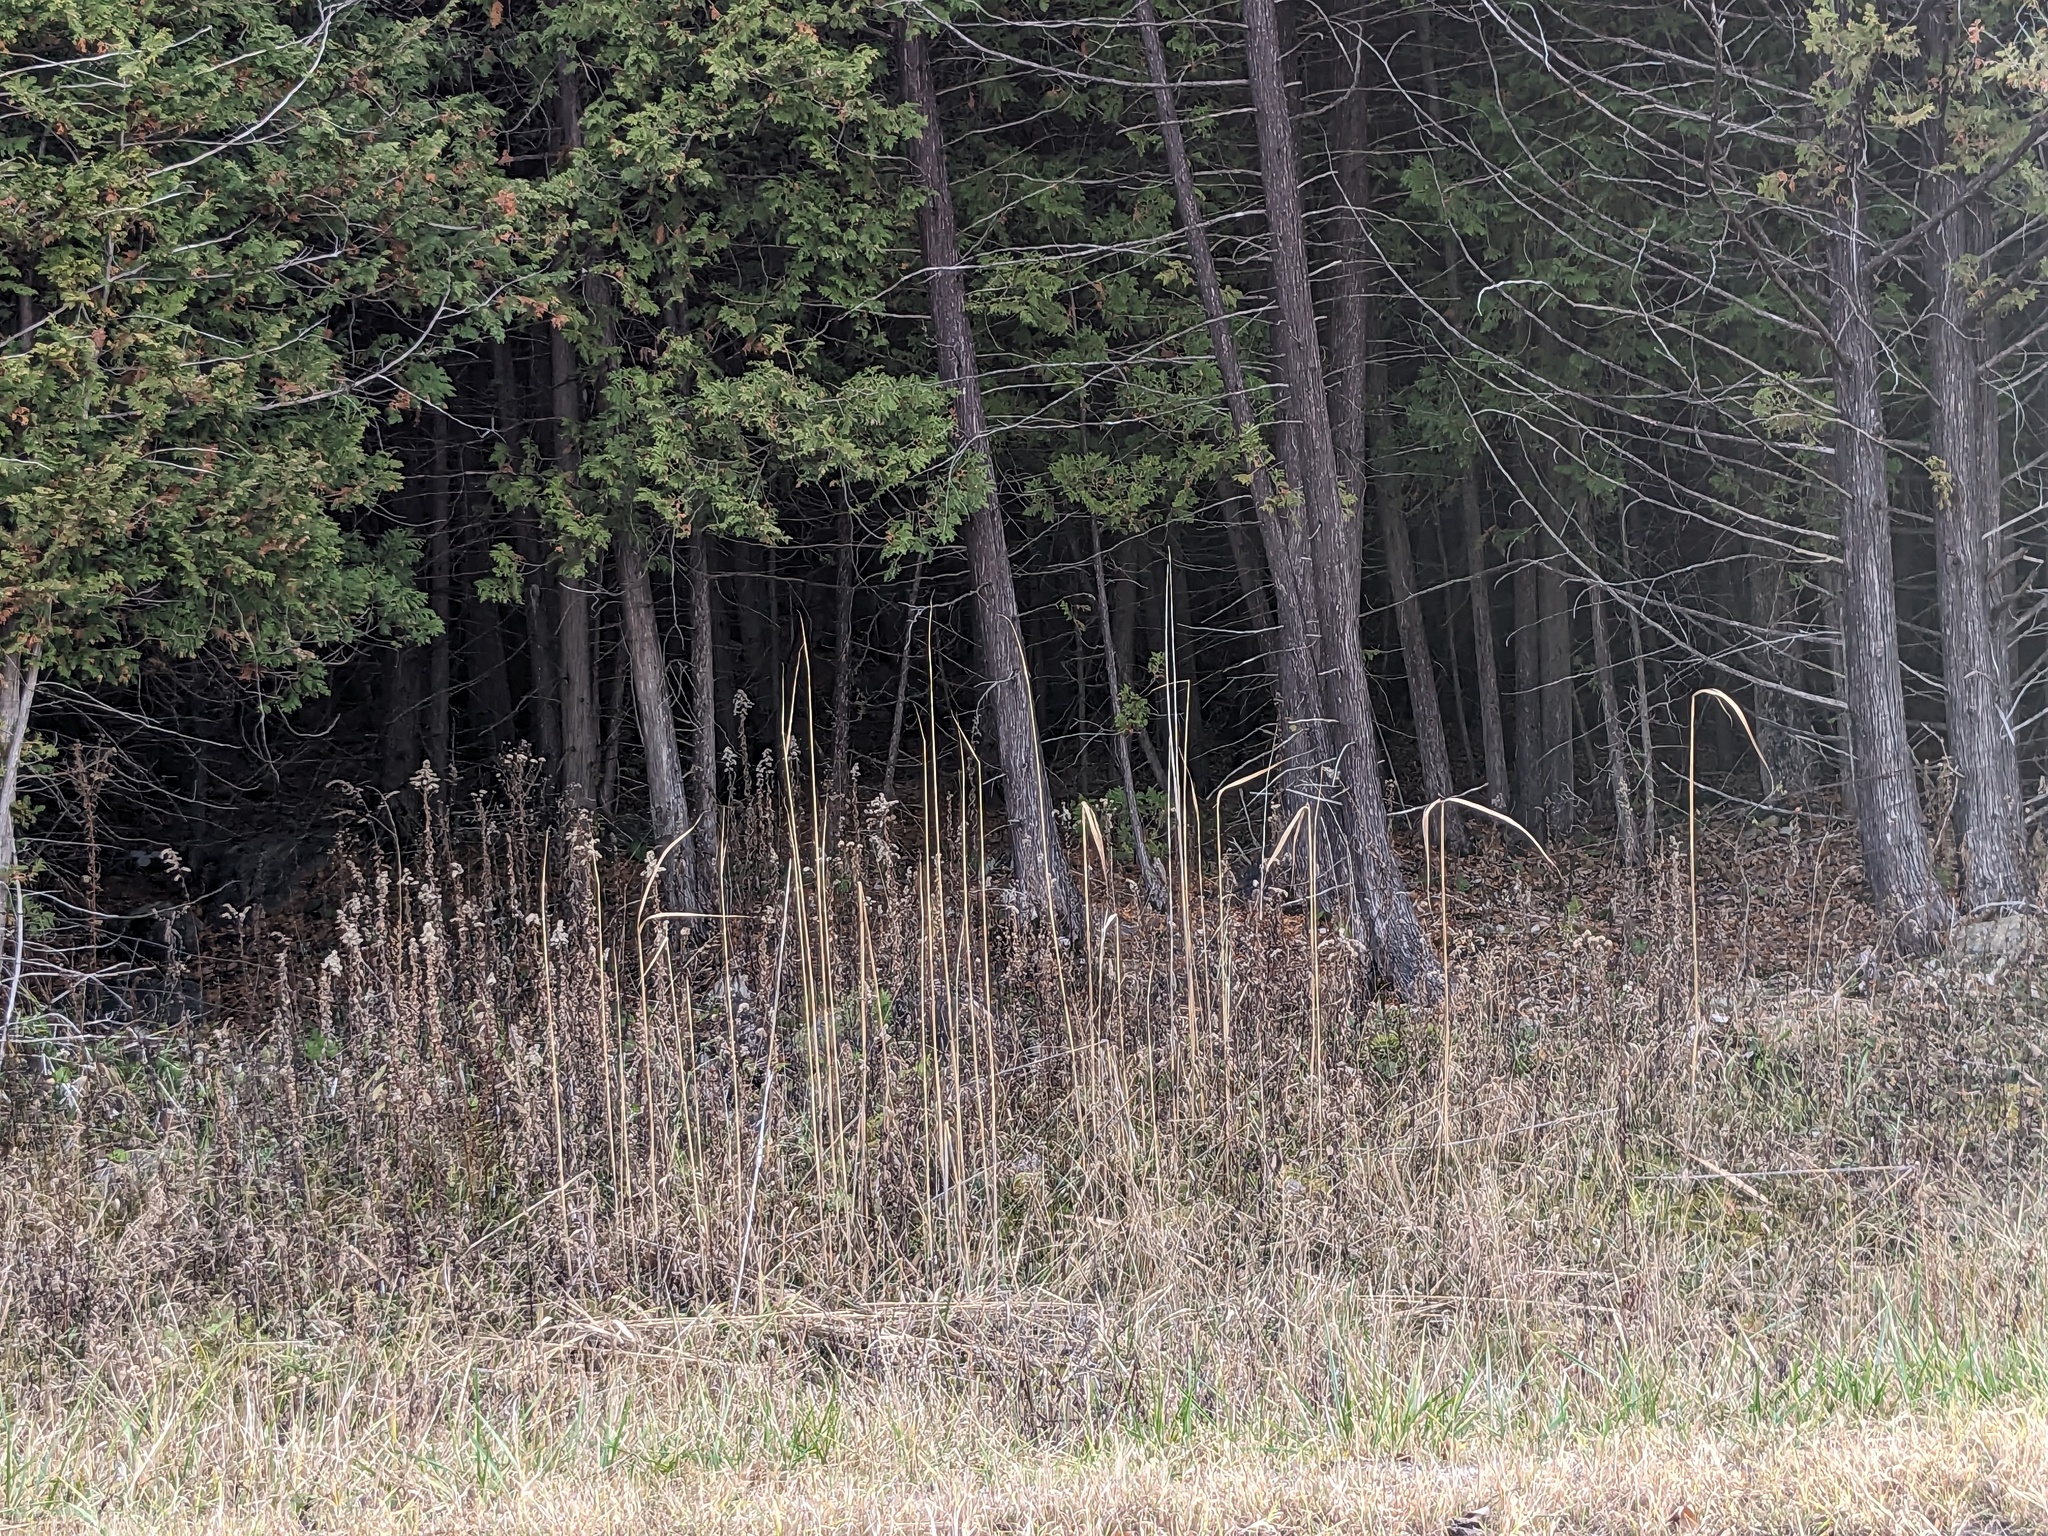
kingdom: Plantae
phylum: Tracheophyta
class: Liliopsida
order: Poales
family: Poaceae
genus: Phragmites
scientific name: Phragmites australis
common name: Common reed
